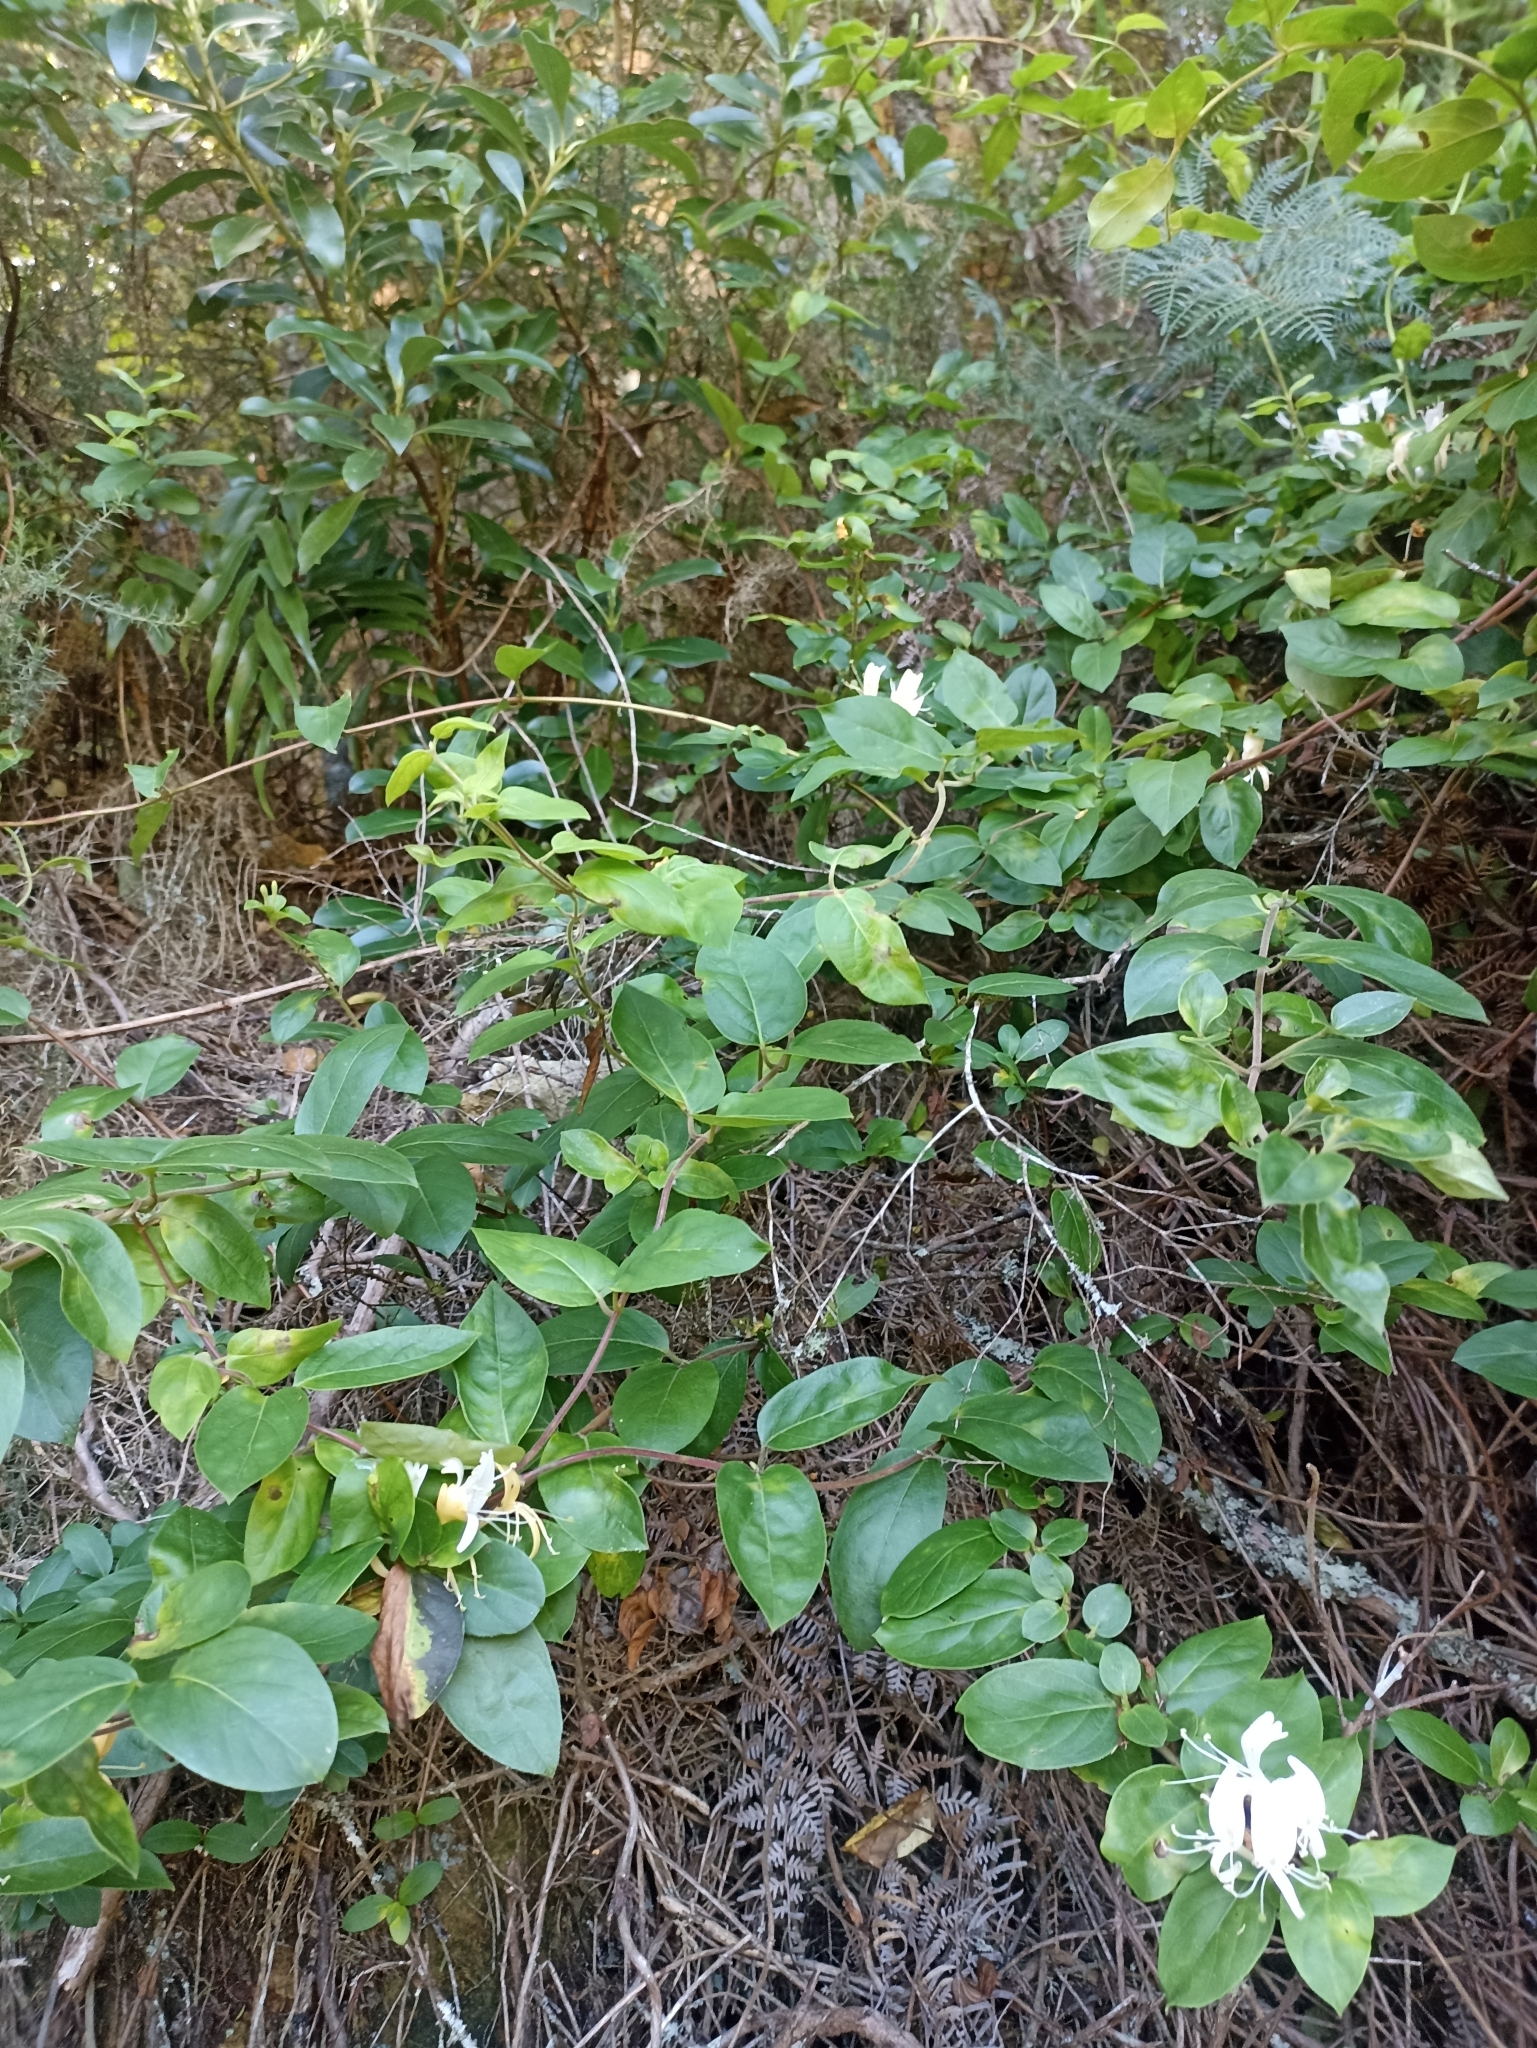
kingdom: Plantae
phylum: Tracheophyta
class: Magnoliopsida
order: Dipsacales
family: Caprifoliaceae
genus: Lonicera
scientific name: Lonicera japonica
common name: Japanese honeysuckle
